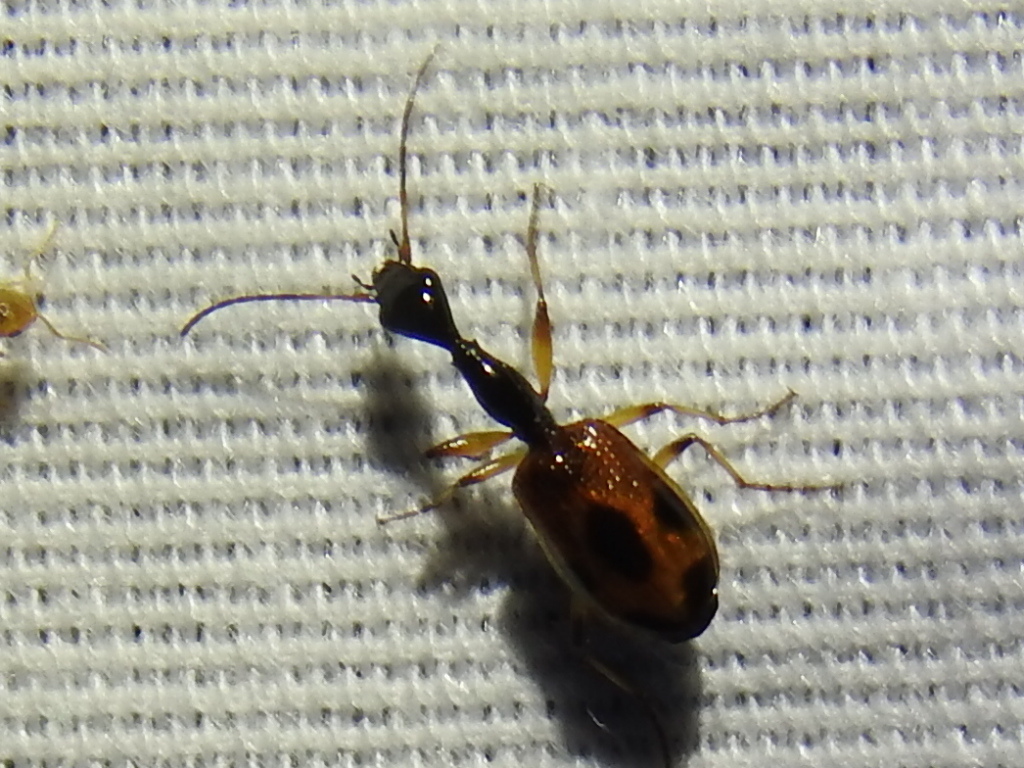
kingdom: Animalia
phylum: Arthropoda
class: Insecta
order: Coleoptera
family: Carabidae
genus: Colliuris
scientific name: Colliuris pensylvanica
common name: Long-necked ground beetle
